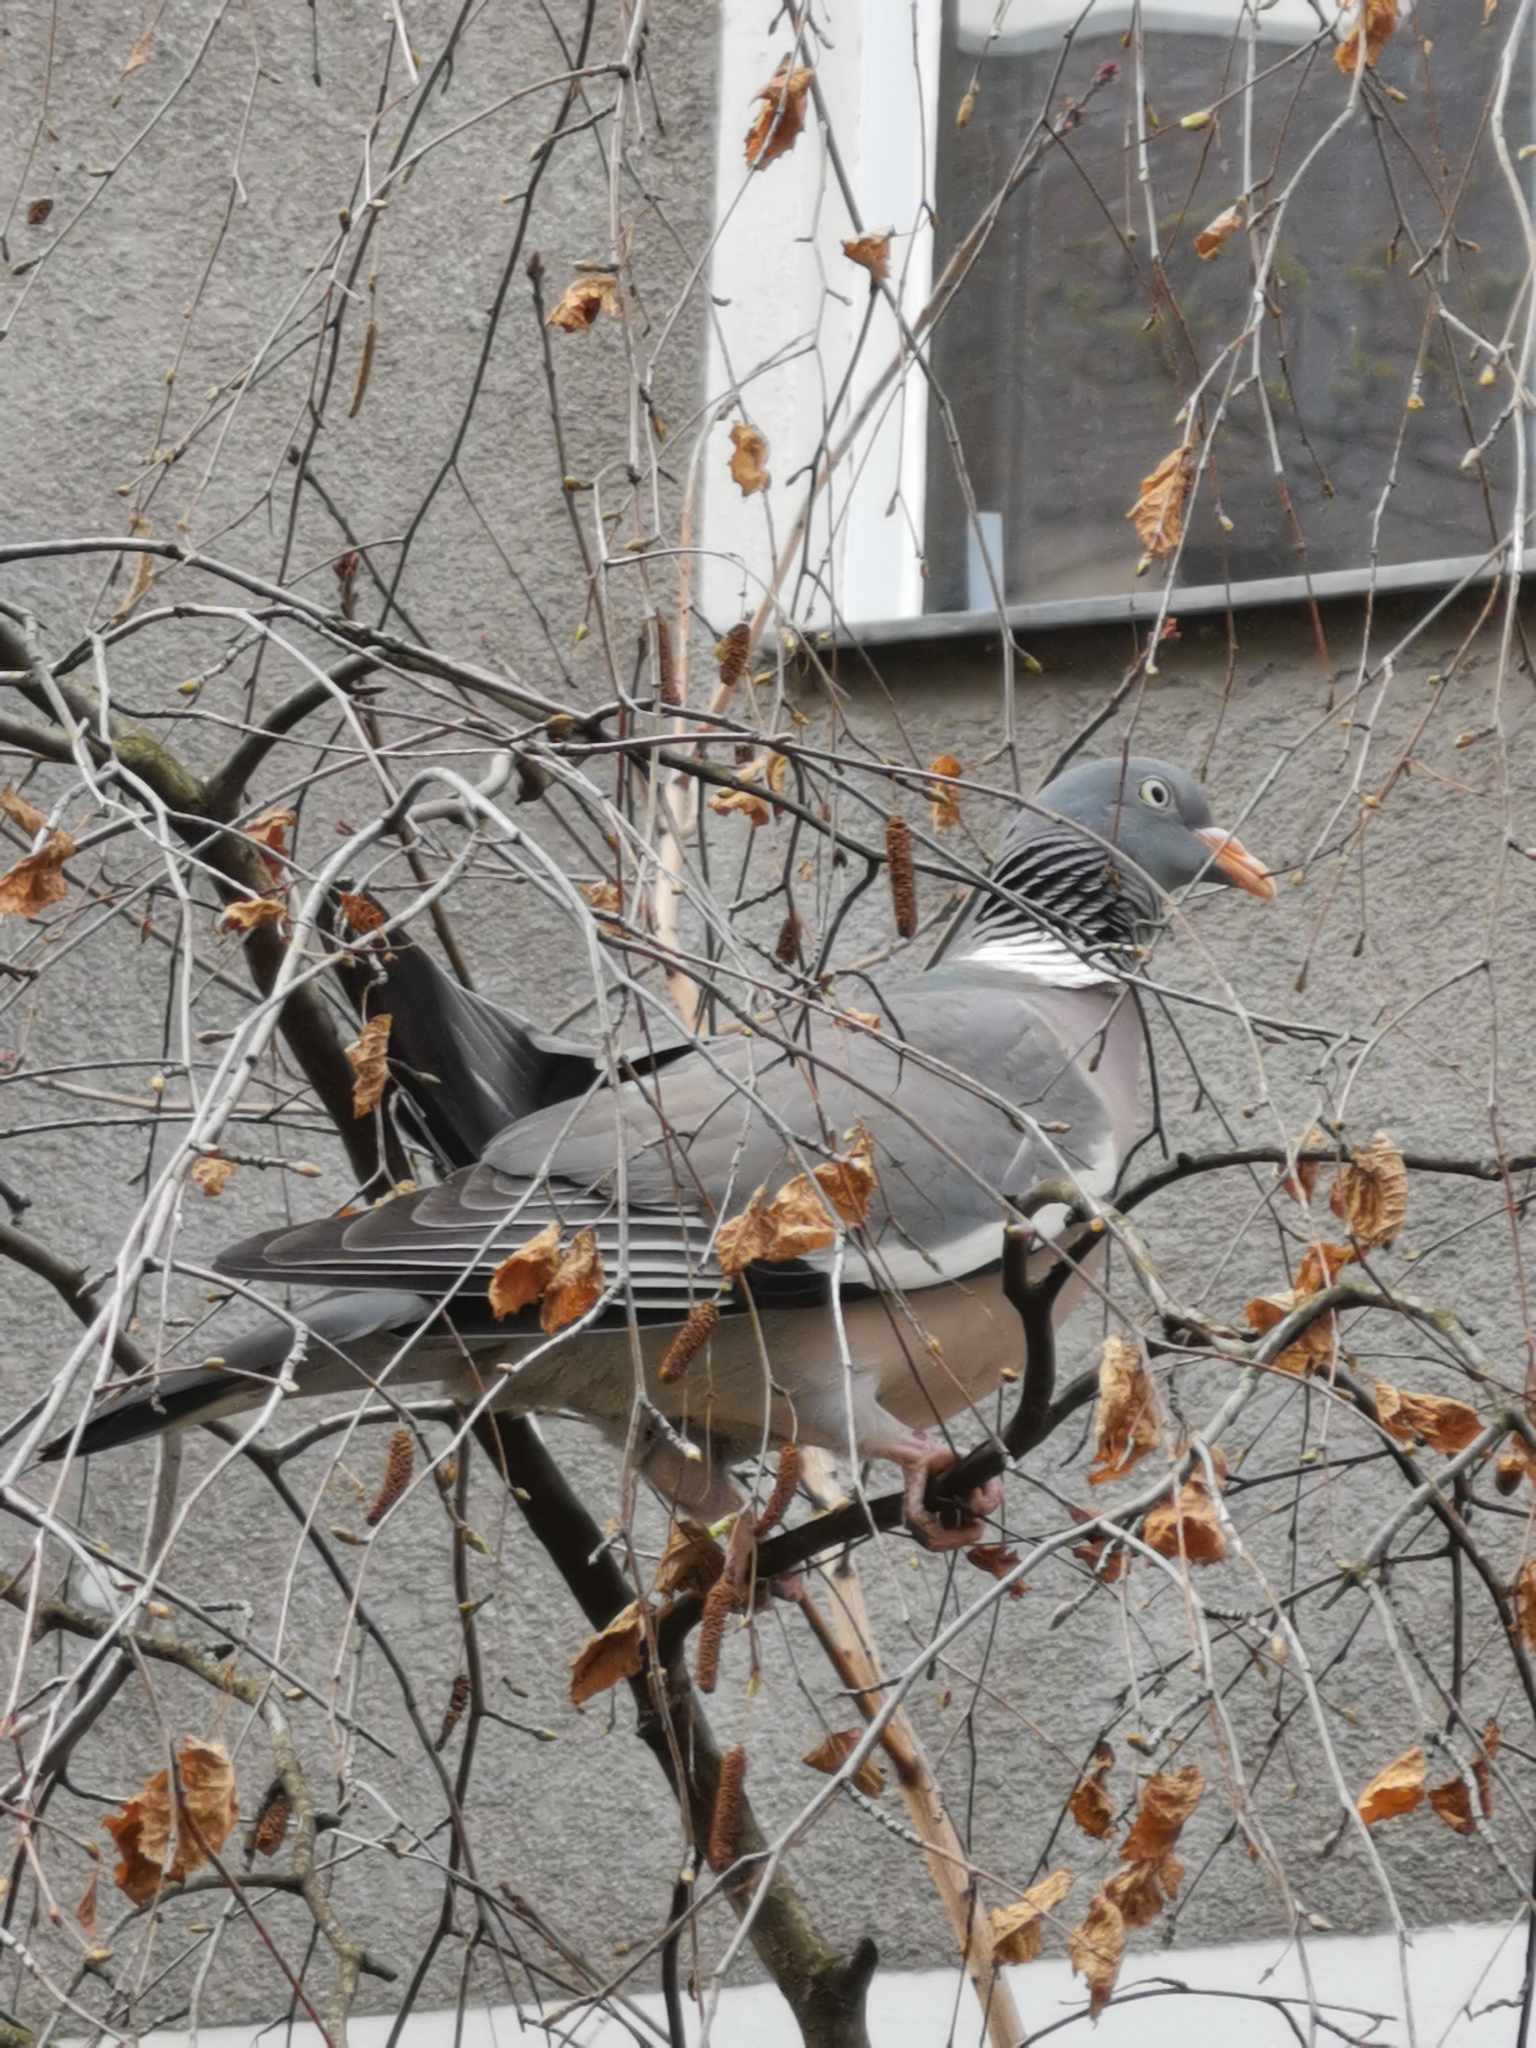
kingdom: Animalia
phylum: Chordata
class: Aves
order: Columbiformes
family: Columbidae
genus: Columba
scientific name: Columba palumbus
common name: Common wood pigeon
